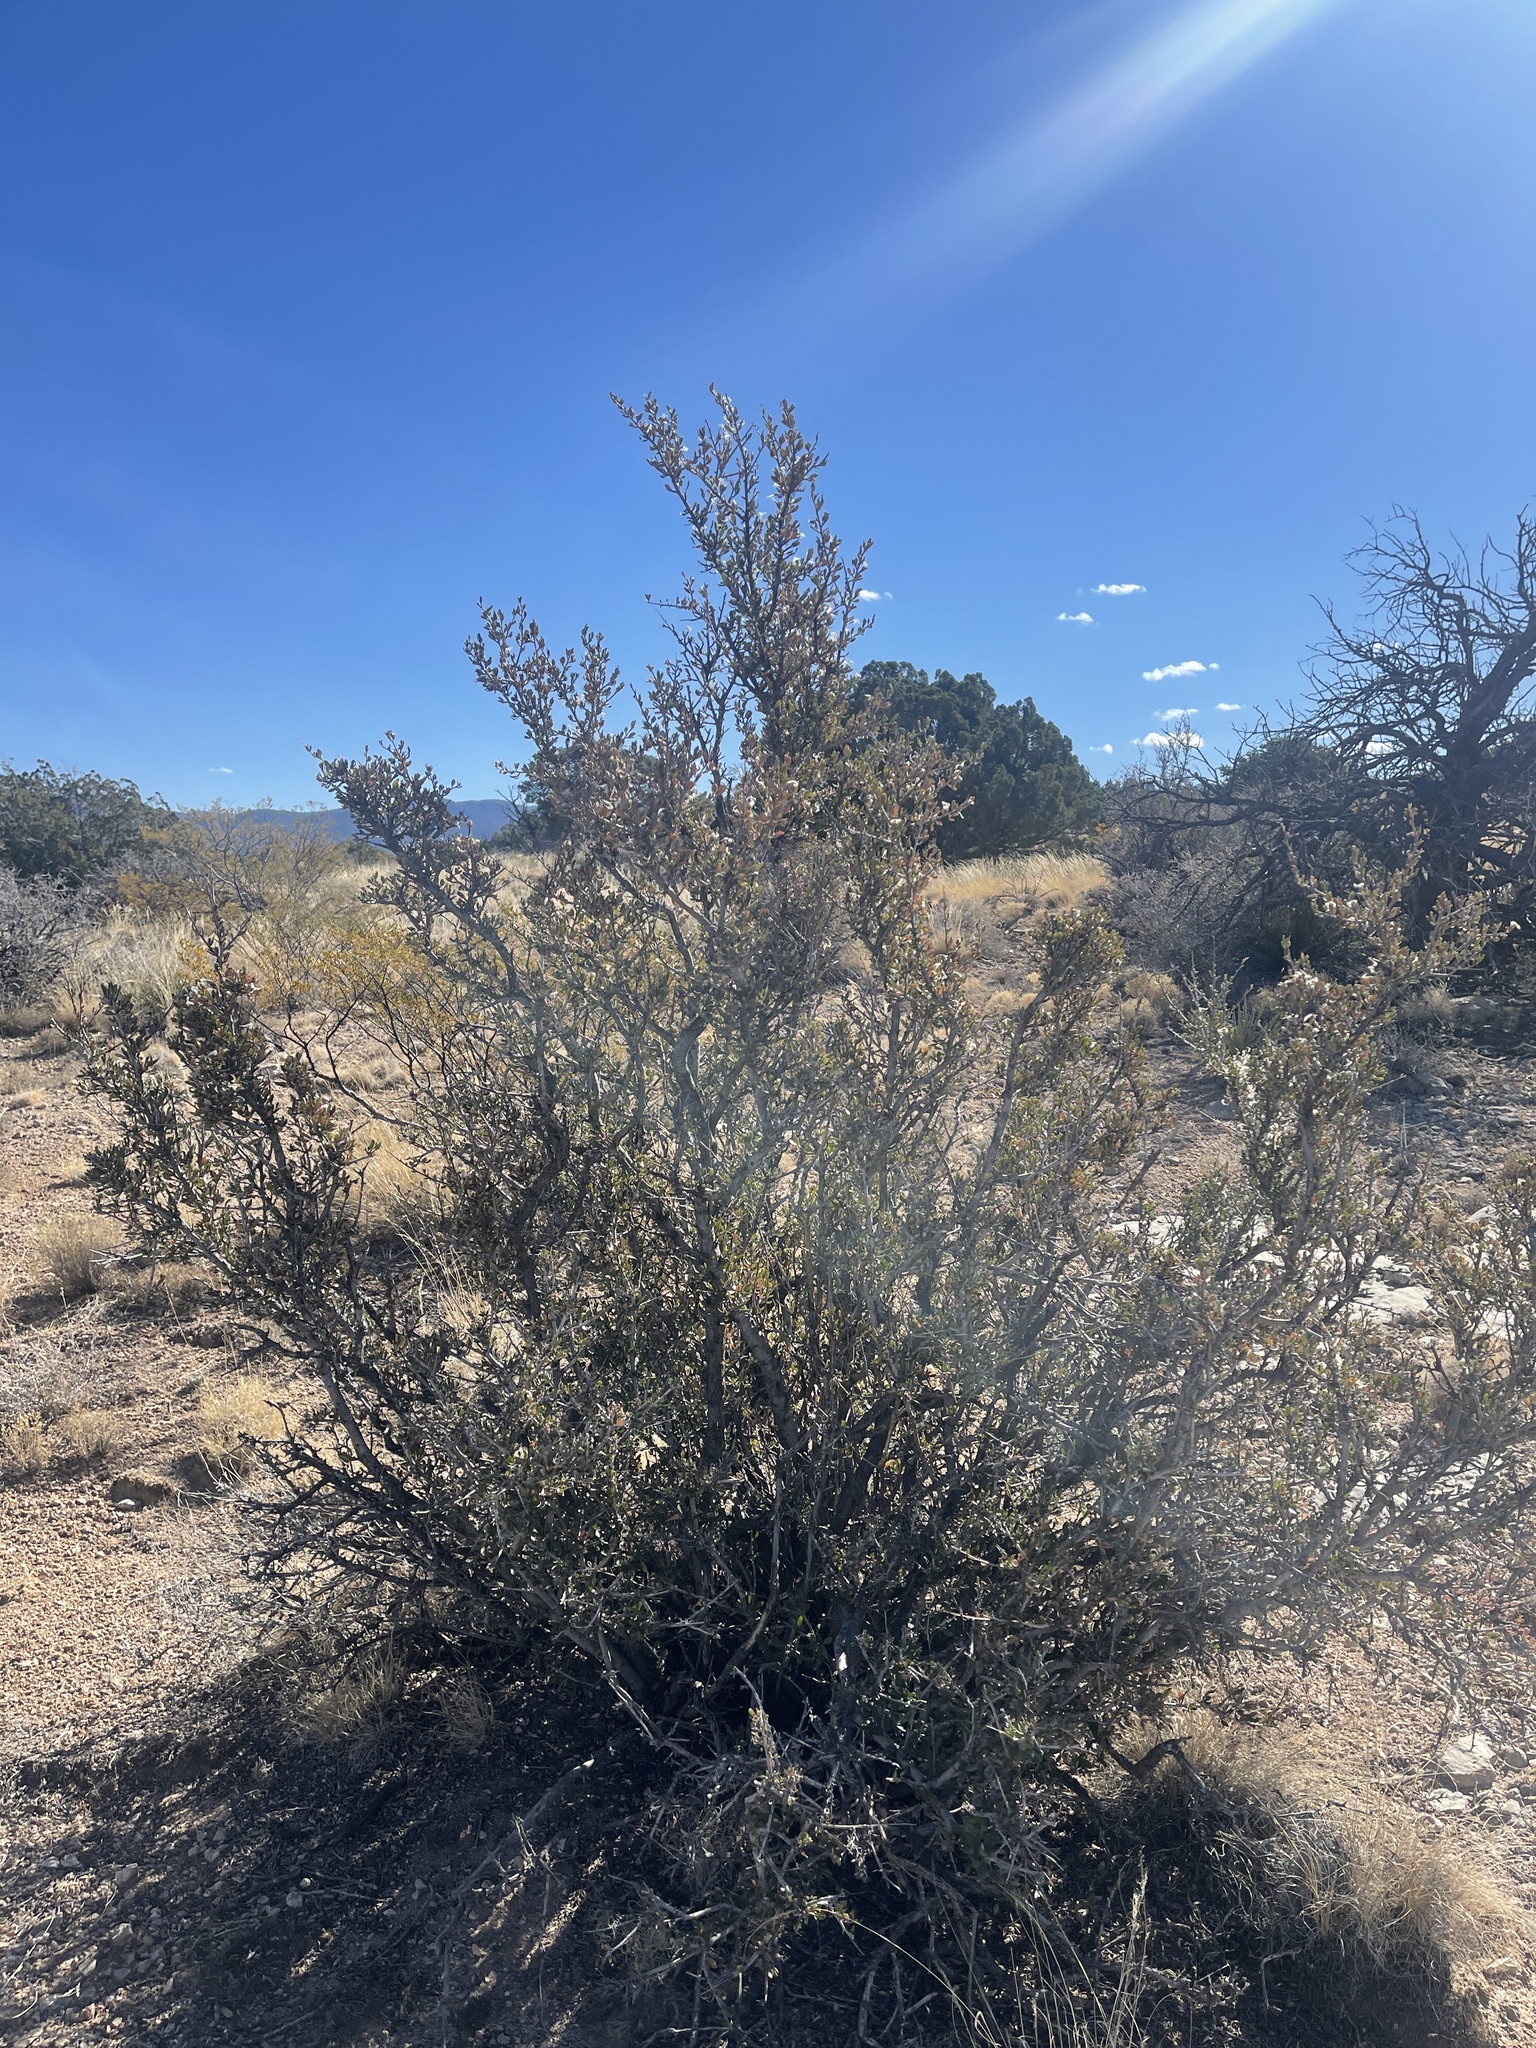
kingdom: Plantae
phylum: Tracheophyta
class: Magnoliopsida
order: Rosales
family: Rosaceae
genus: Cercocarpus
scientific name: Cercocarpus breviflorus
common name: Wright's mountain-mahogany
